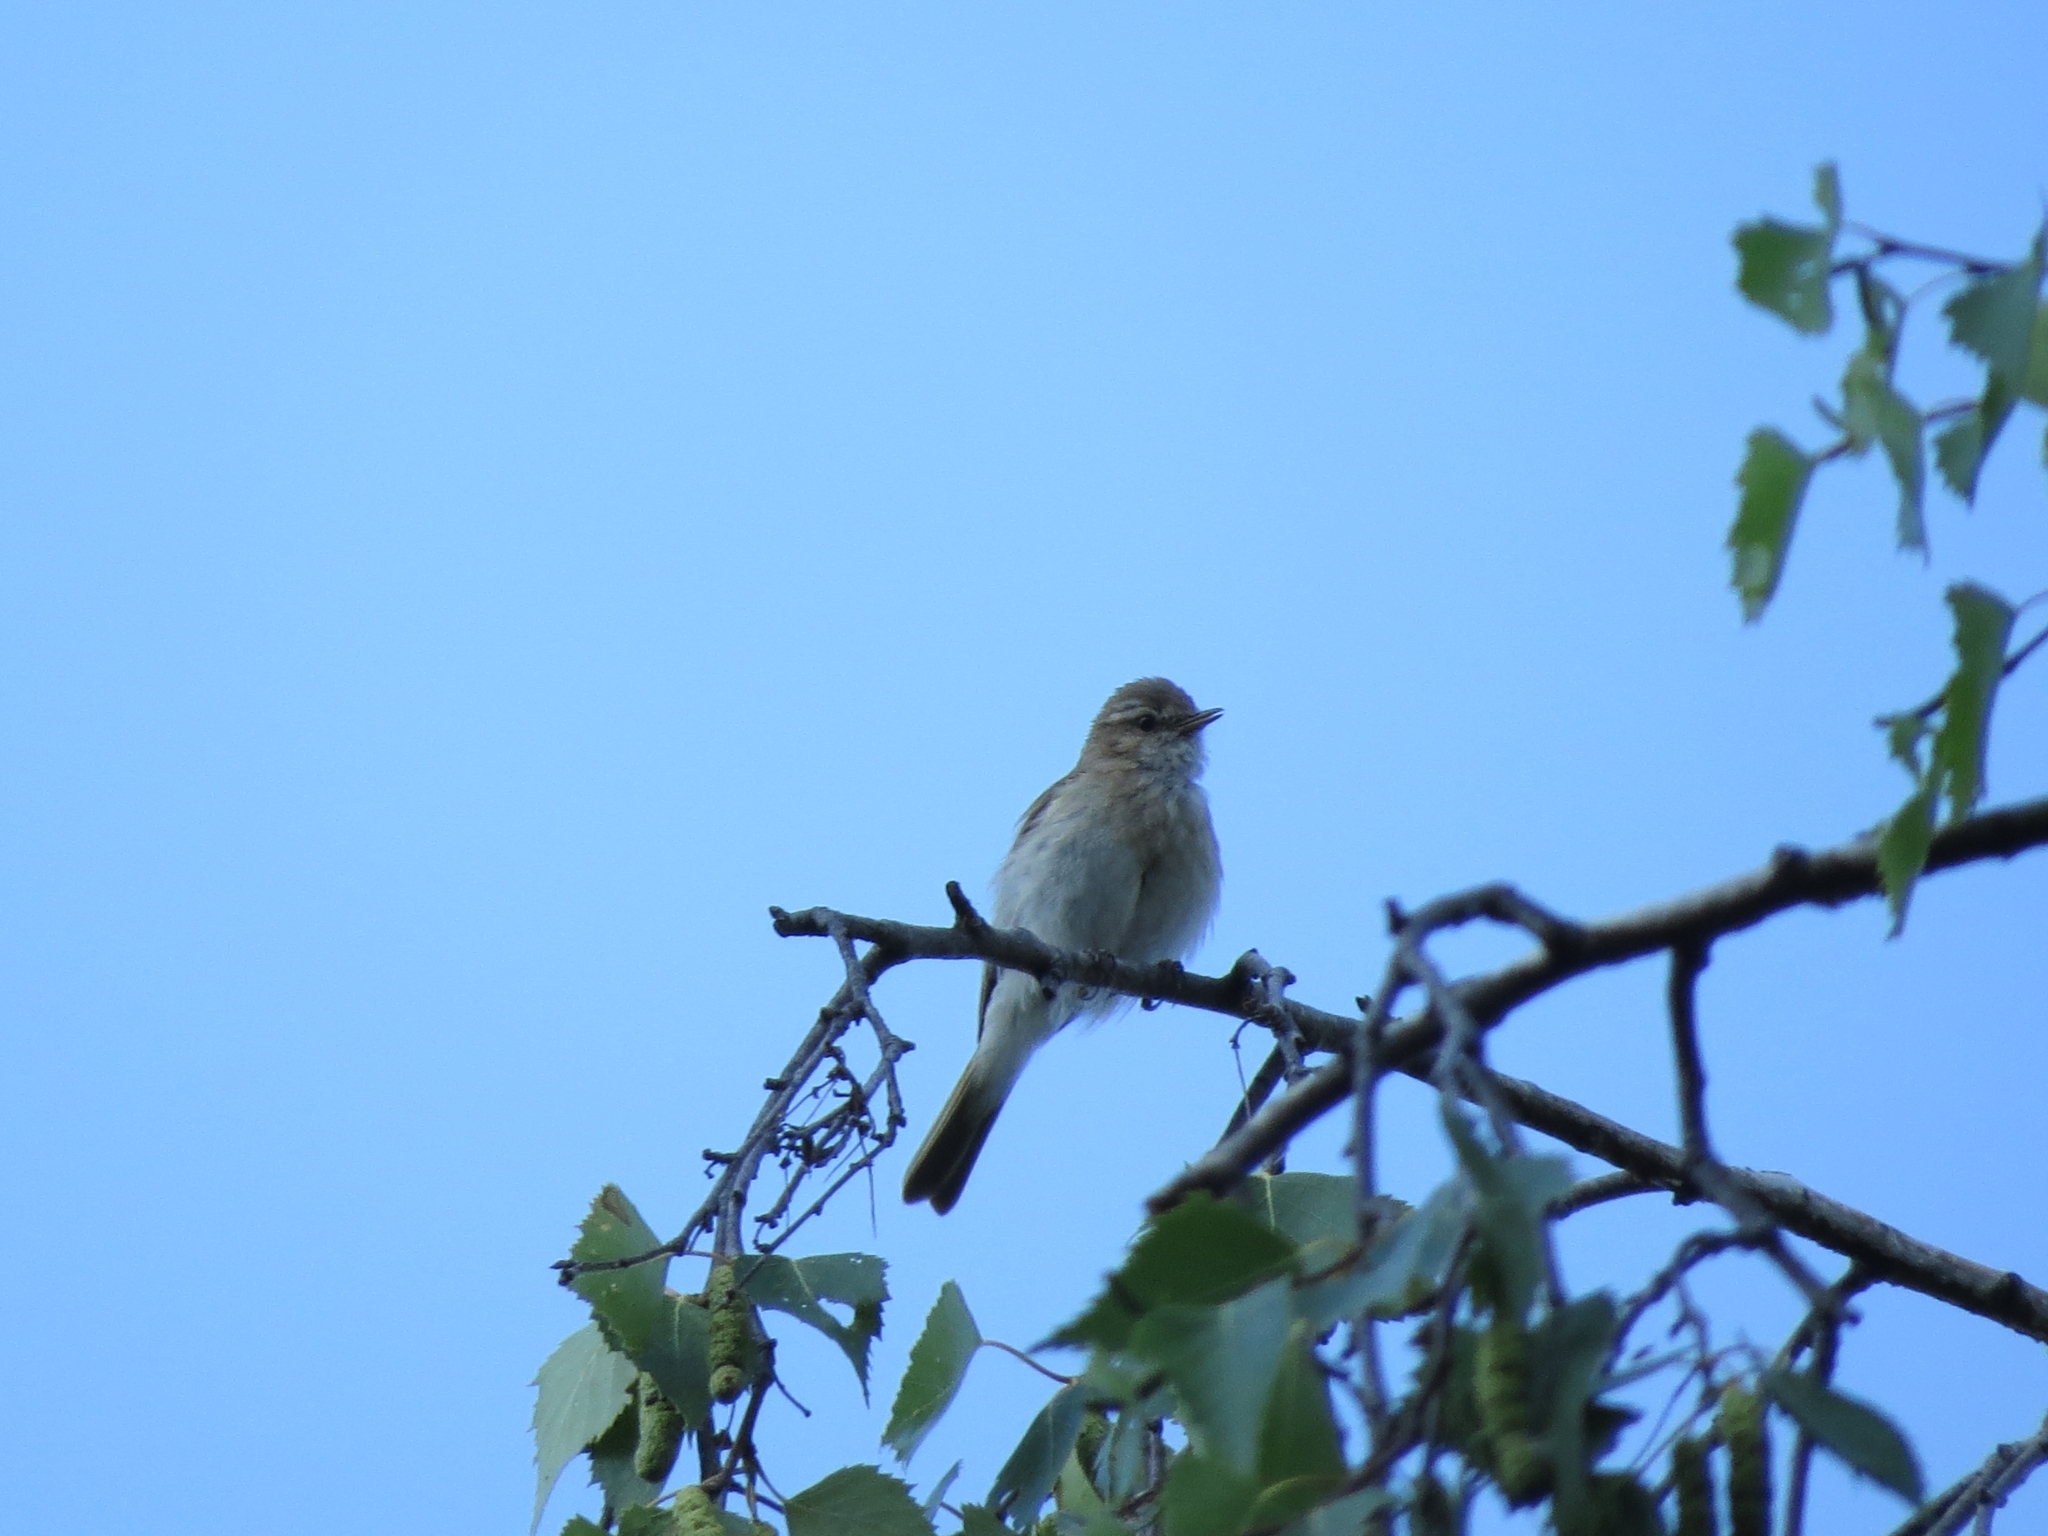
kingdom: Animalia
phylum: Chordata
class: Aves
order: Passeriformes
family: Phylloscopidae
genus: Phylloscopus
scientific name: Phylloscopus collybita
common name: Common chiffchaff
